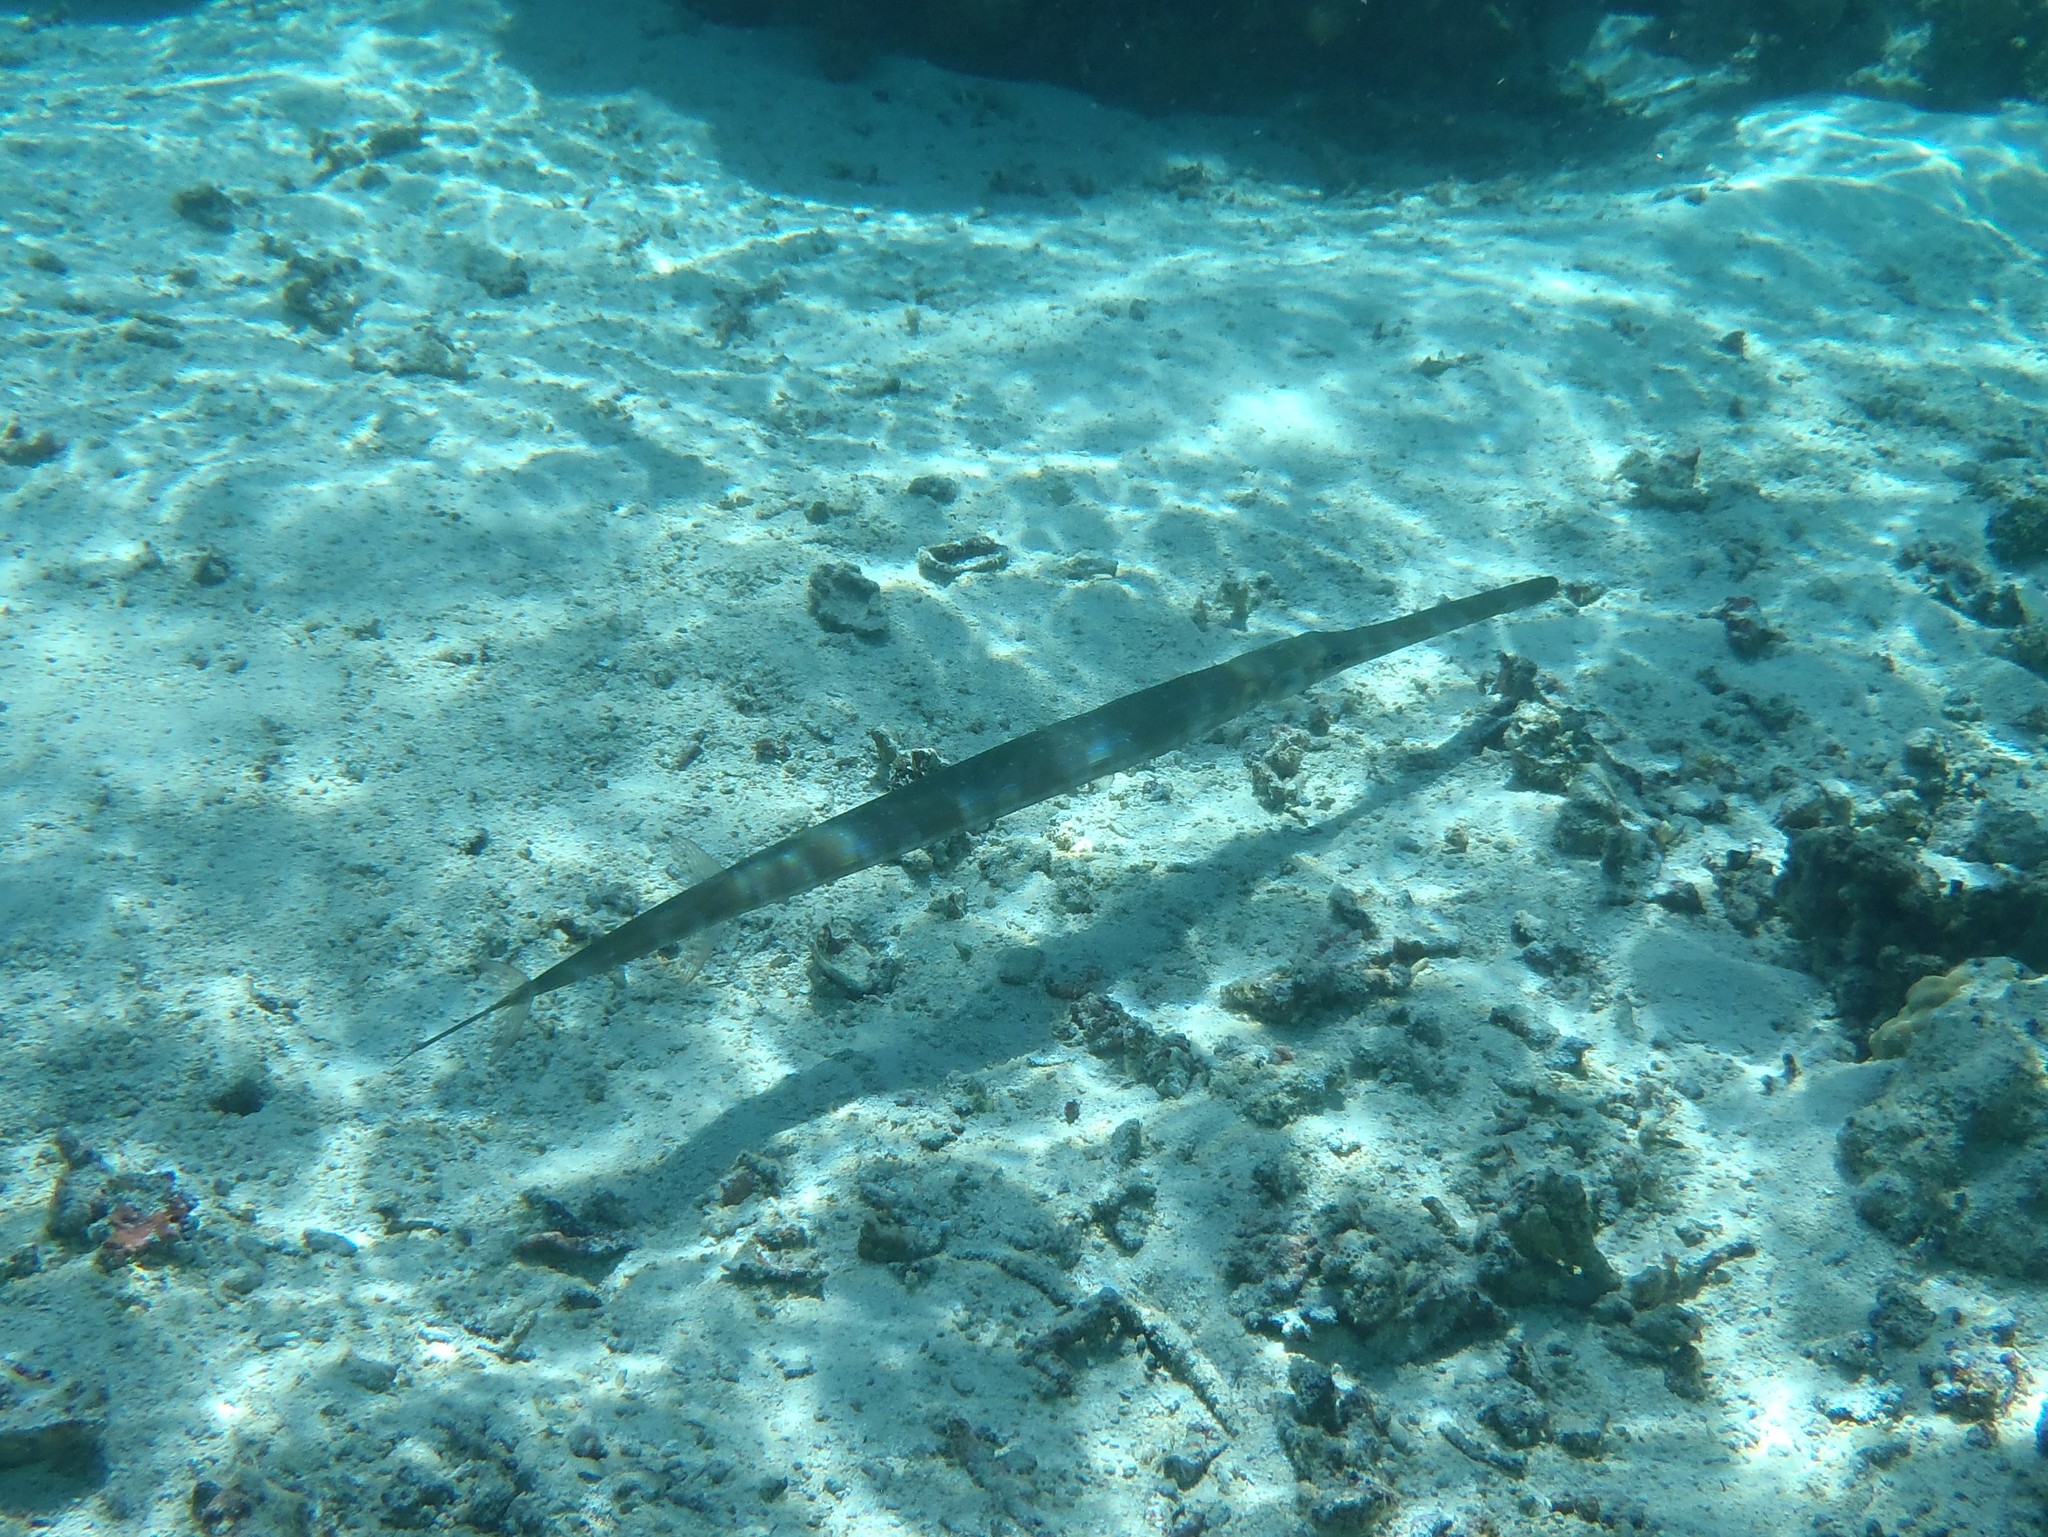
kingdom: Animalia
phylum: Chordata
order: Syngnathiformes
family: Fistulariidae
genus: Fistularia
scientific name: Fistularia commersonii
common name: Bluespotted cornetfish
